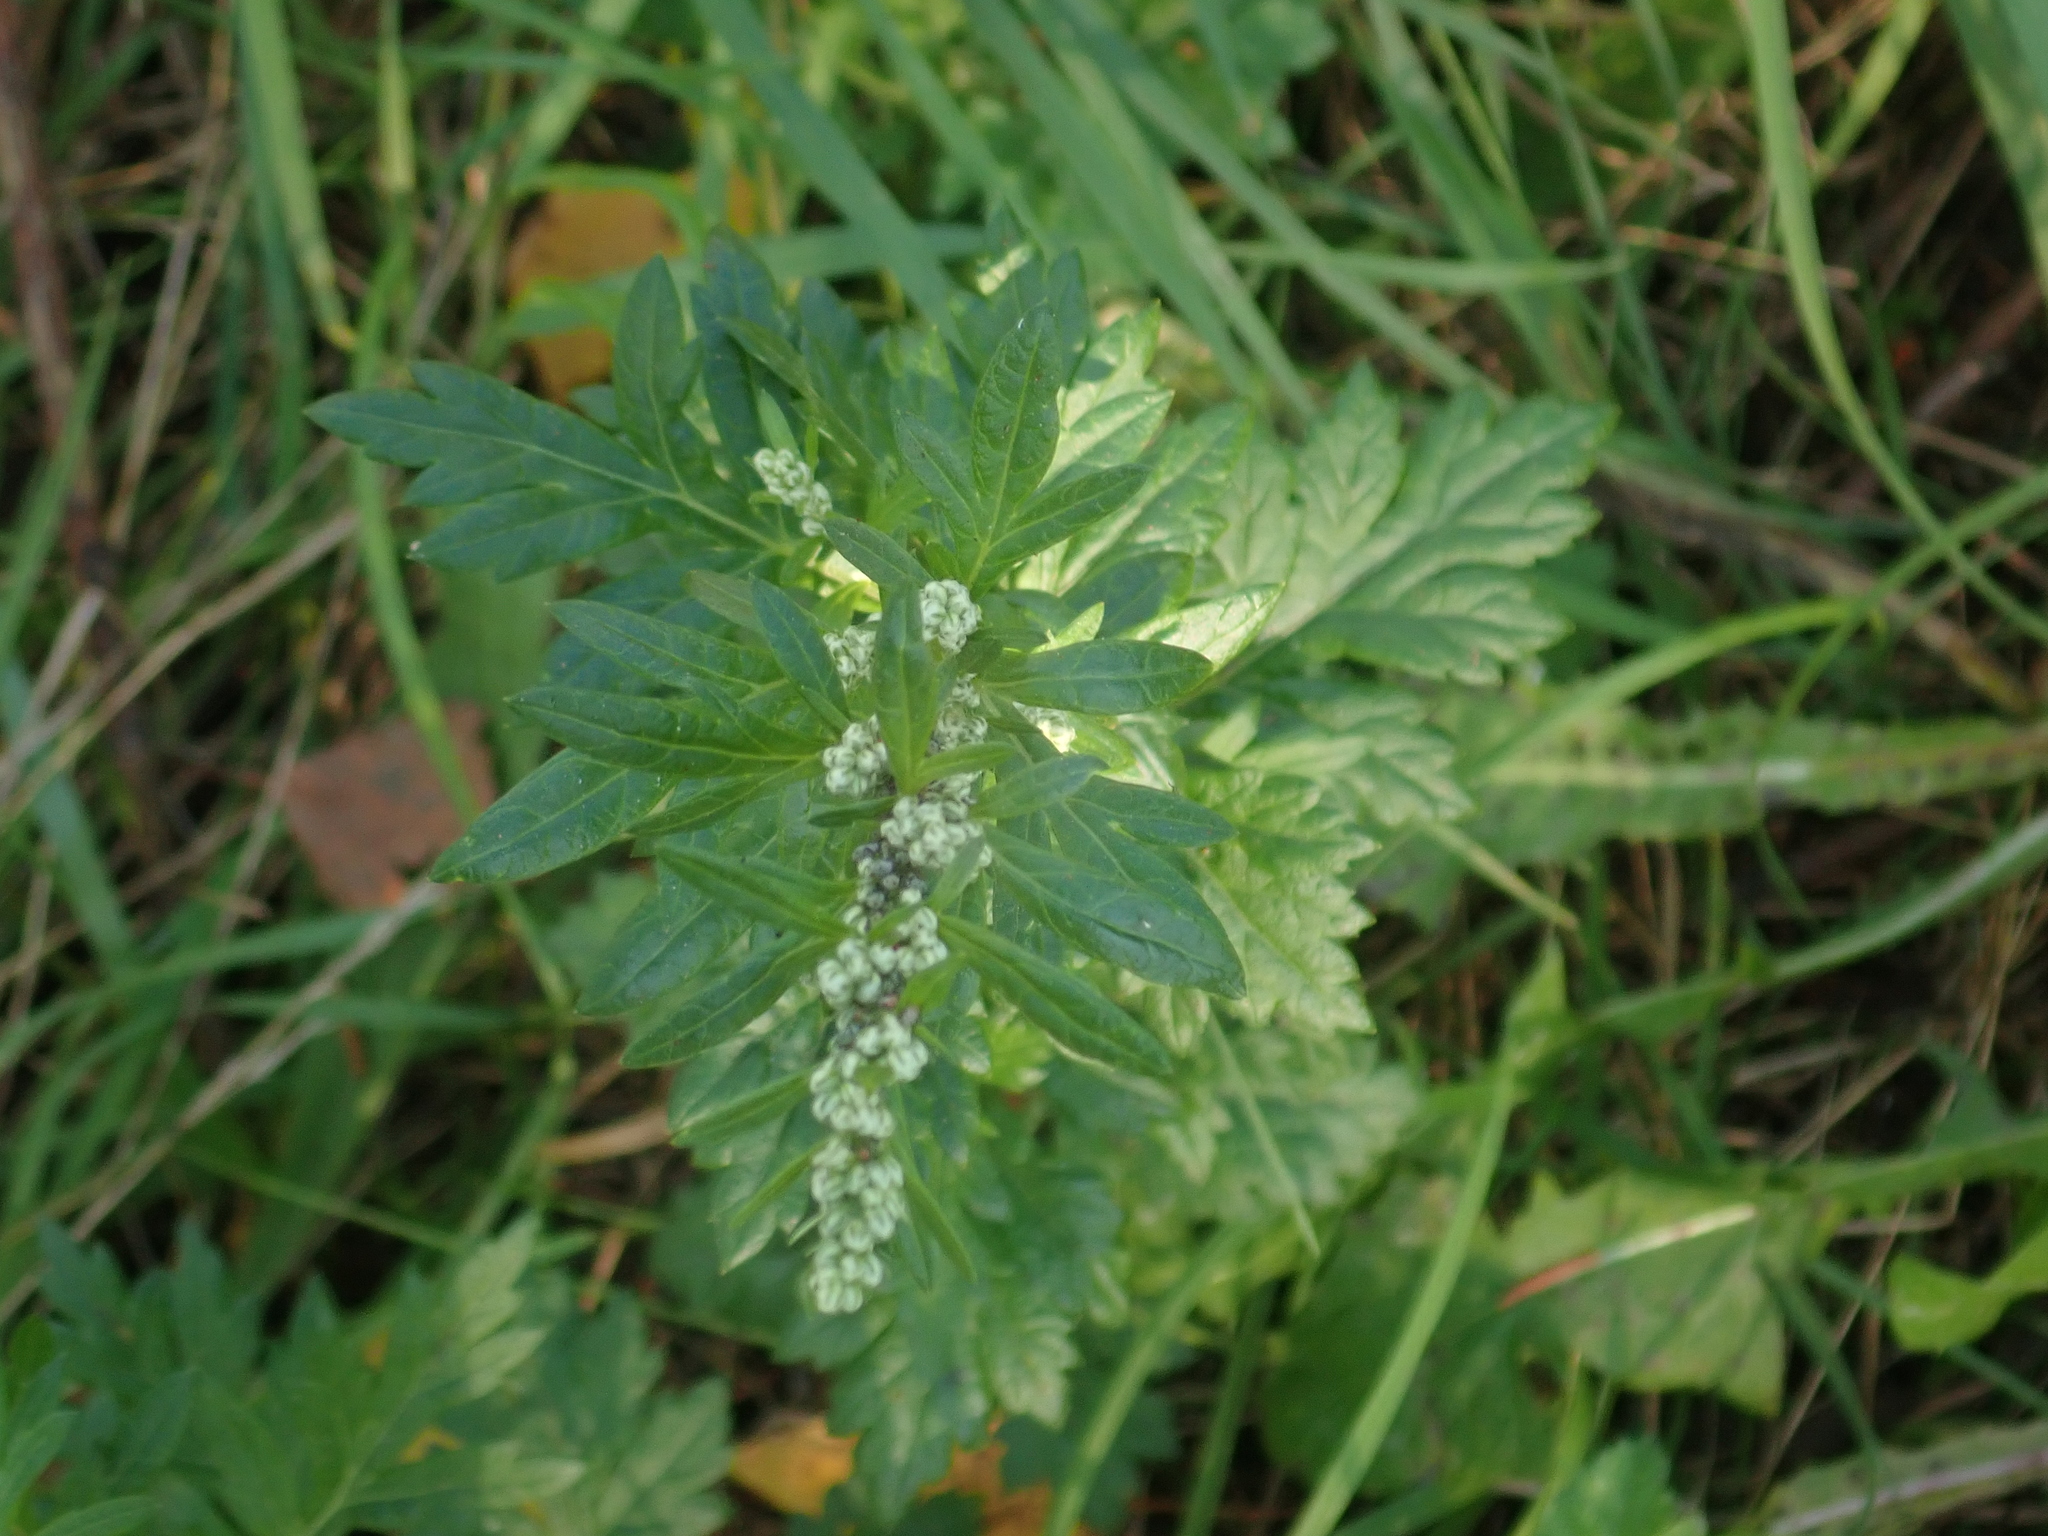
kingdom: Plantae
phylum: Tracheophyta
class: Magnoliopsida
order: Asterales
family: Asteraceae
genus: Artemisia
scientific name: Artemisia vulgaris
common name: Mugwort
